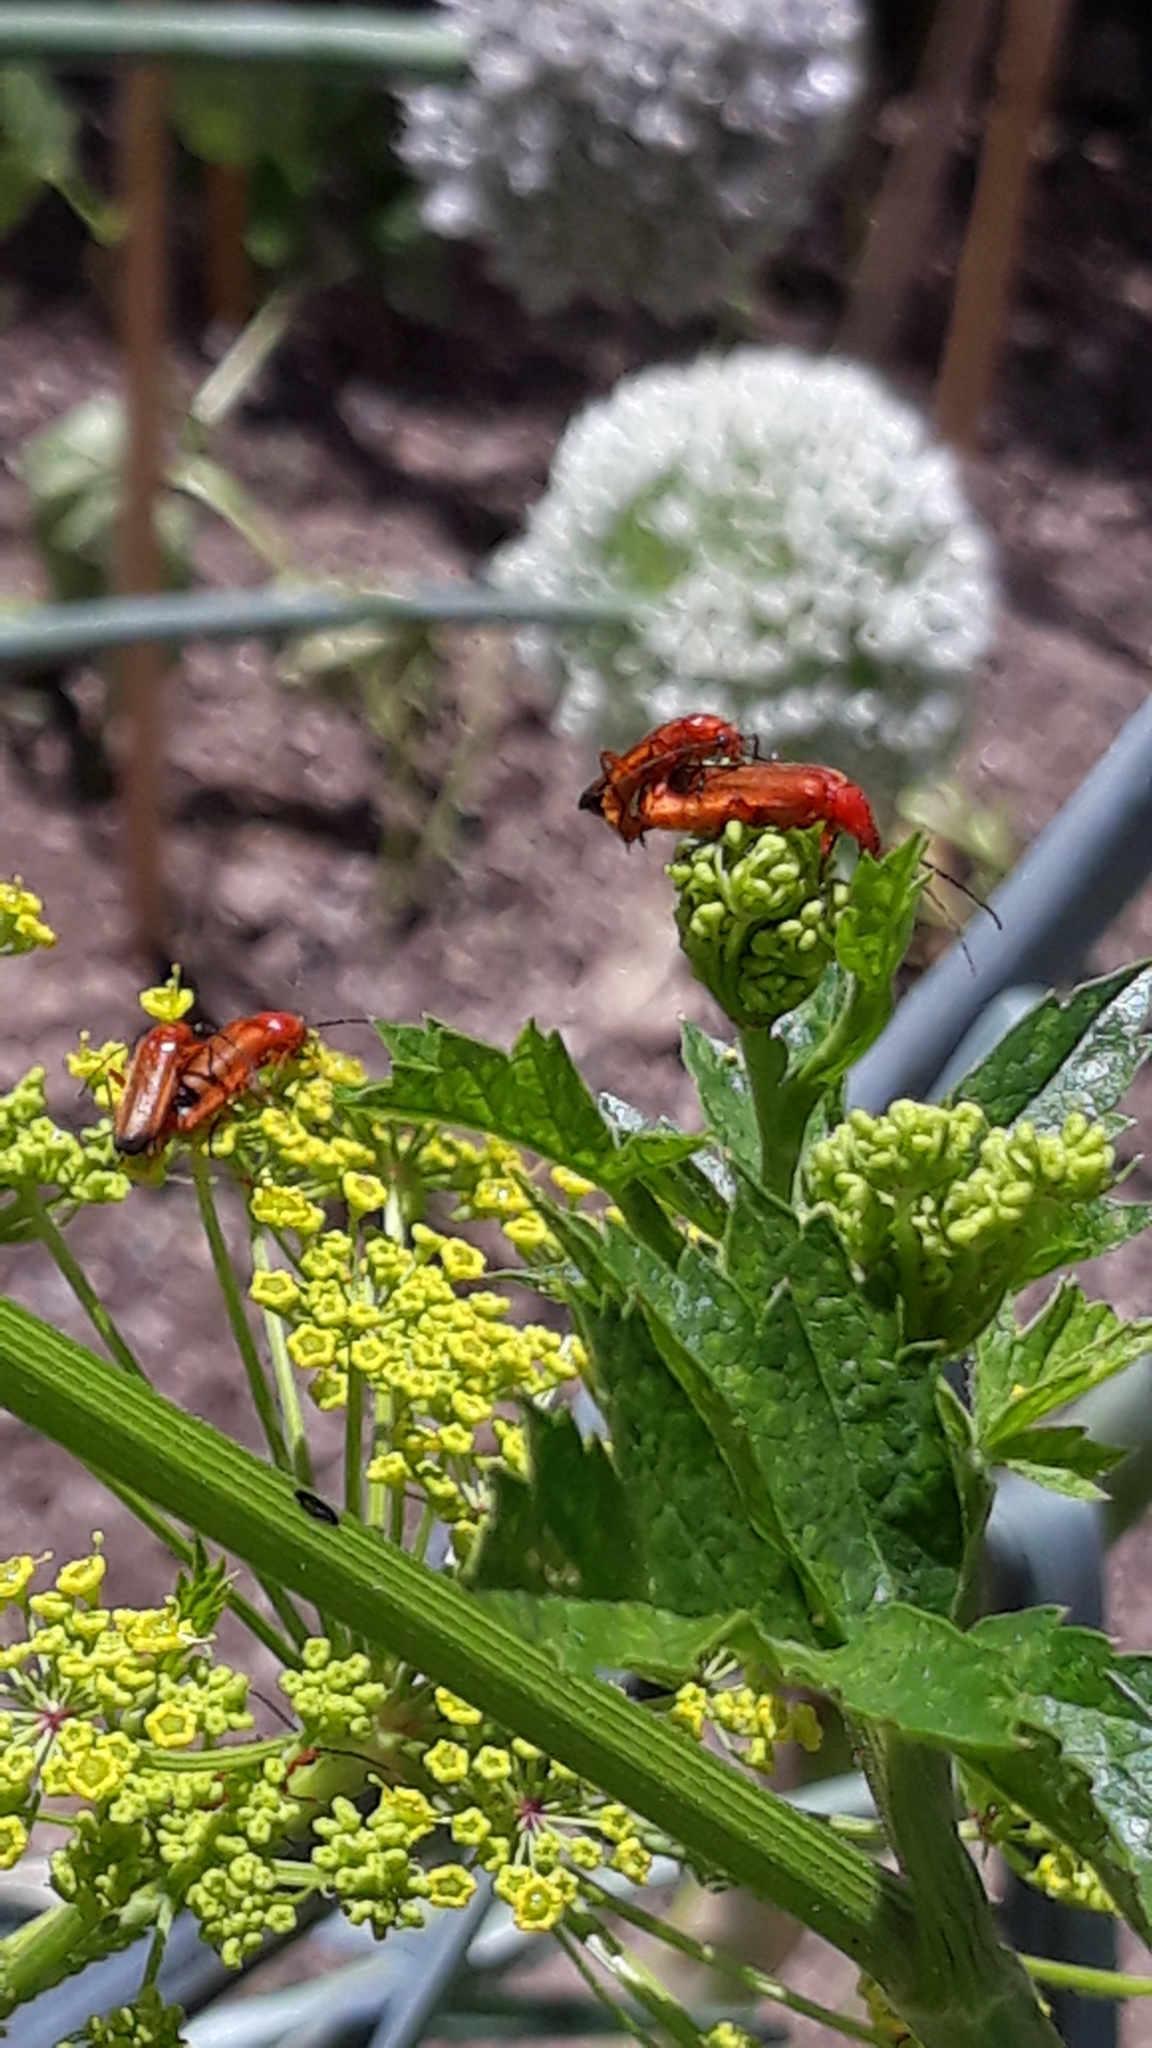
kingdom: Animalia
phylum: Arthropoda
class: Insecta
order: Coleoptera
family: Cantharidae
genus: Rhagonycha
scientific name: Rhagonycha fulva
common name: Common red soldier beetle
